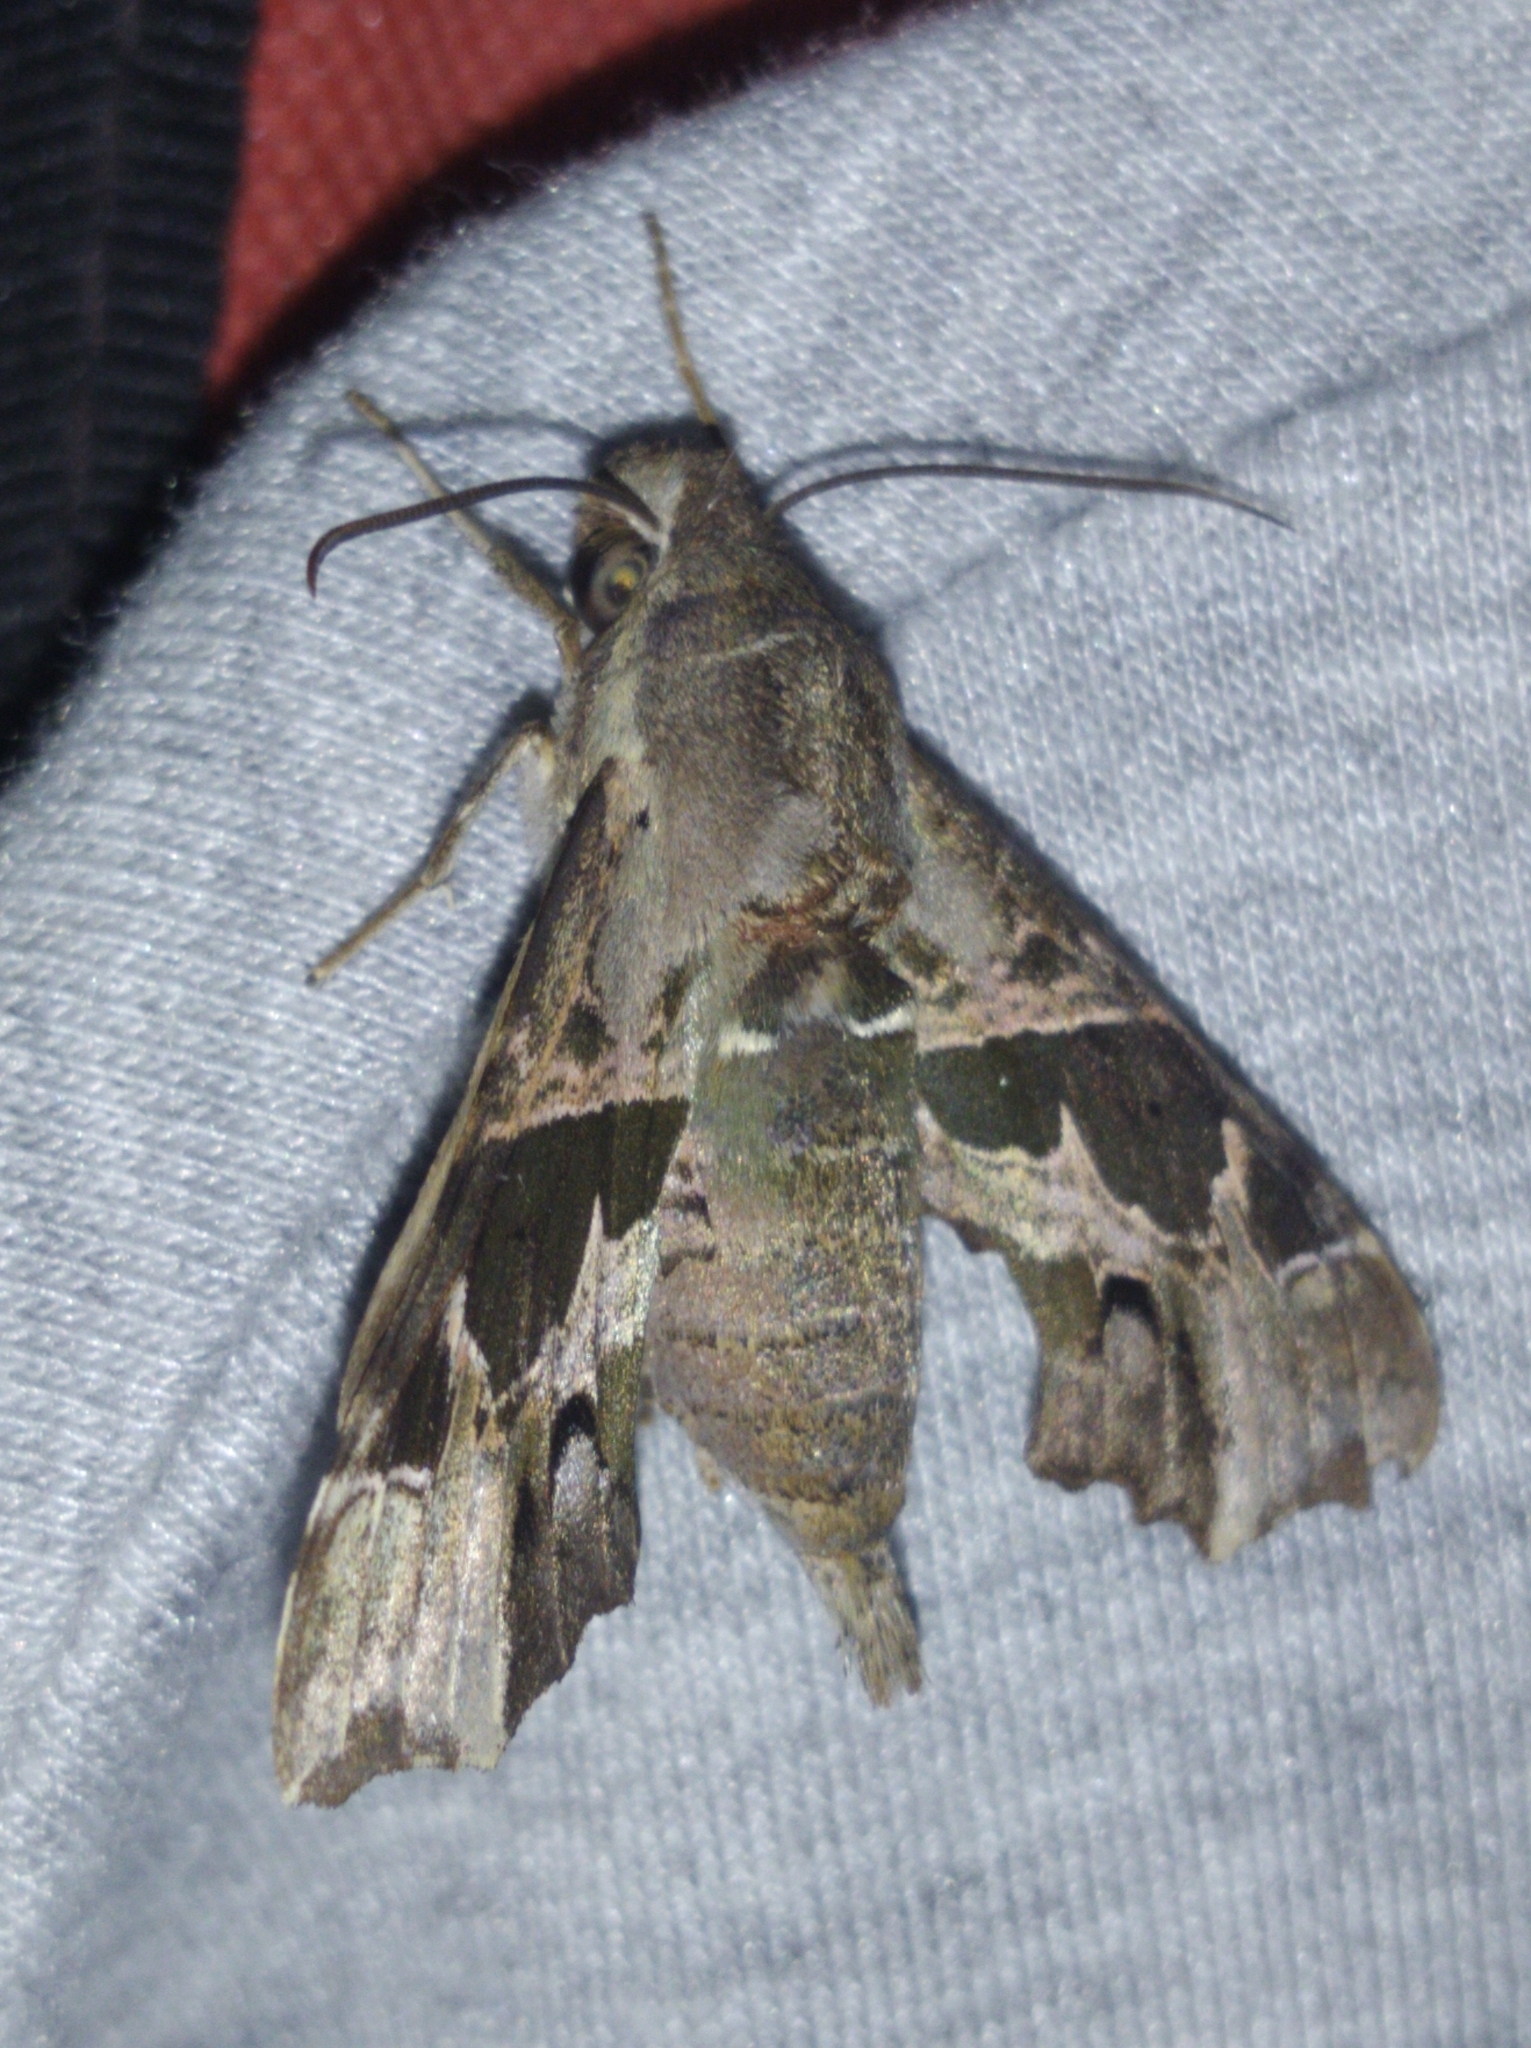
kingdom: Animalia
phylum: Arthropoda
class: Insecta
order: Lepidoptera
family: Sphingidae
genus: Unzela
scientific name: Unzela japix
